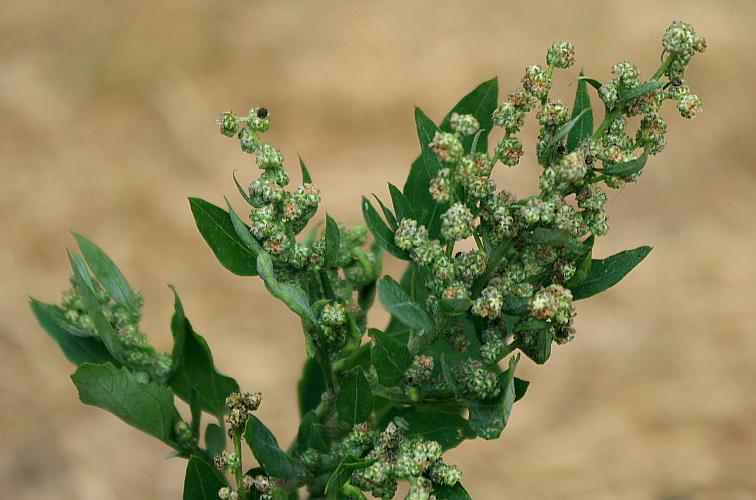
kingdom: Plantae
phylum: Tracheophyta
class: Magnoliopsida
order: Caryophyllales
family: Amaranthaceae
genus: Chenopodium
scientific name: Chenopodium album
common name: Fat-hen
